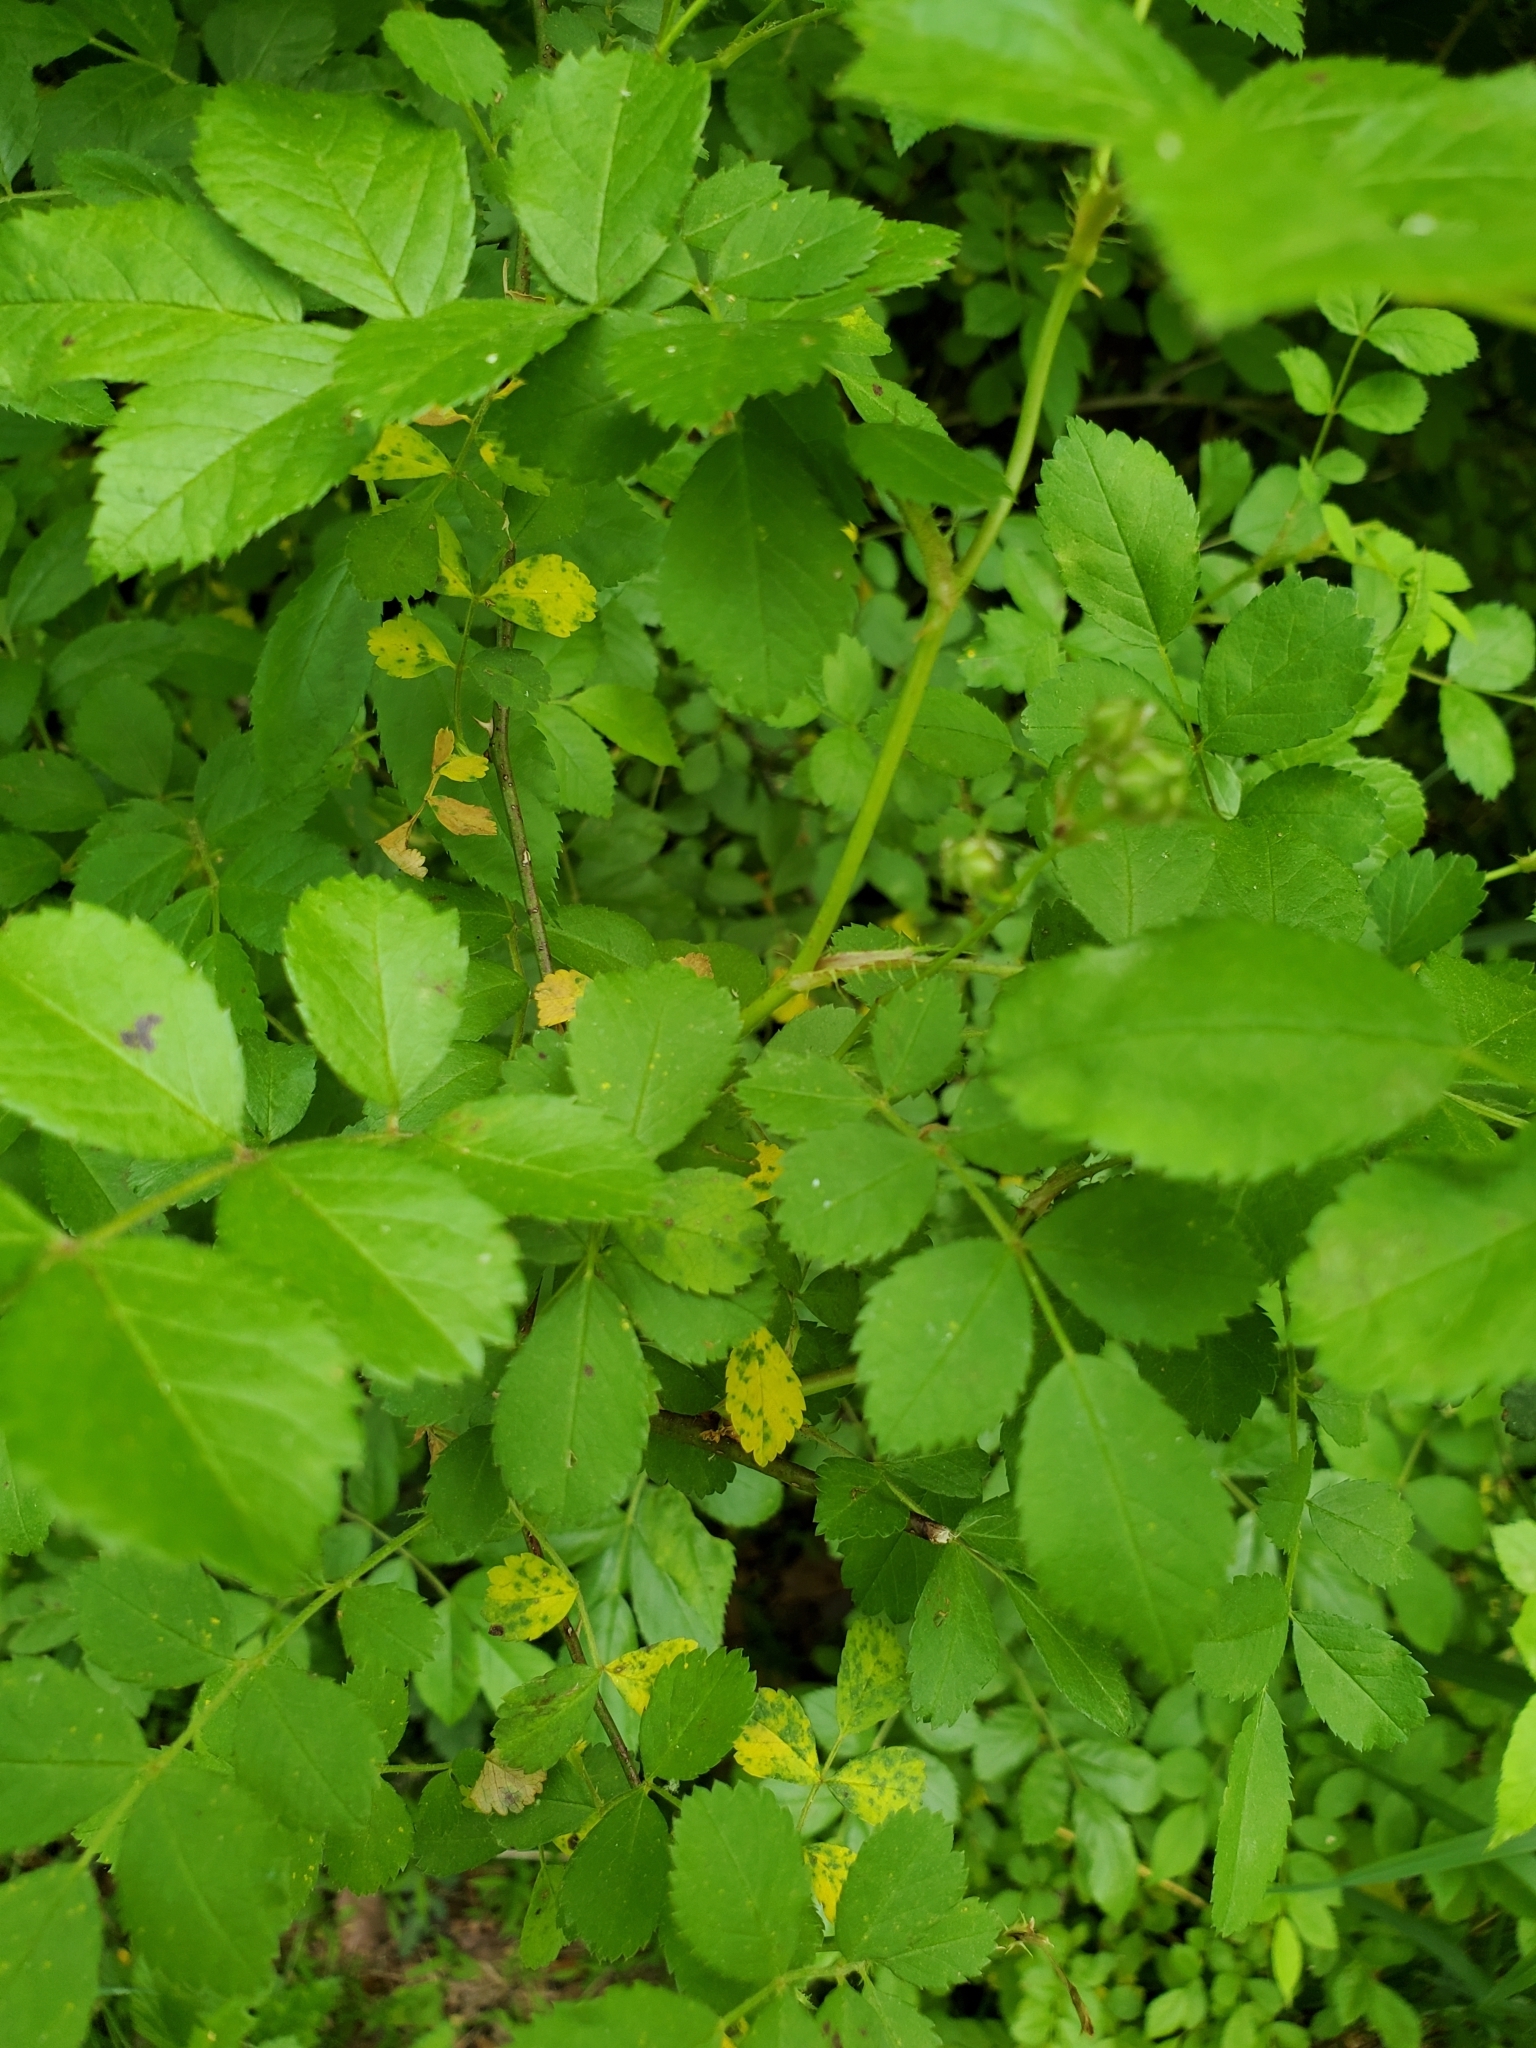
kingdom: Plantae
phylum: Tracheophyta
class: Magnoliopsida
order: Rosales
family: Rosaceae
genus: Rosa
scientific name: Rosa multiflora
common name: Multiflora rose
